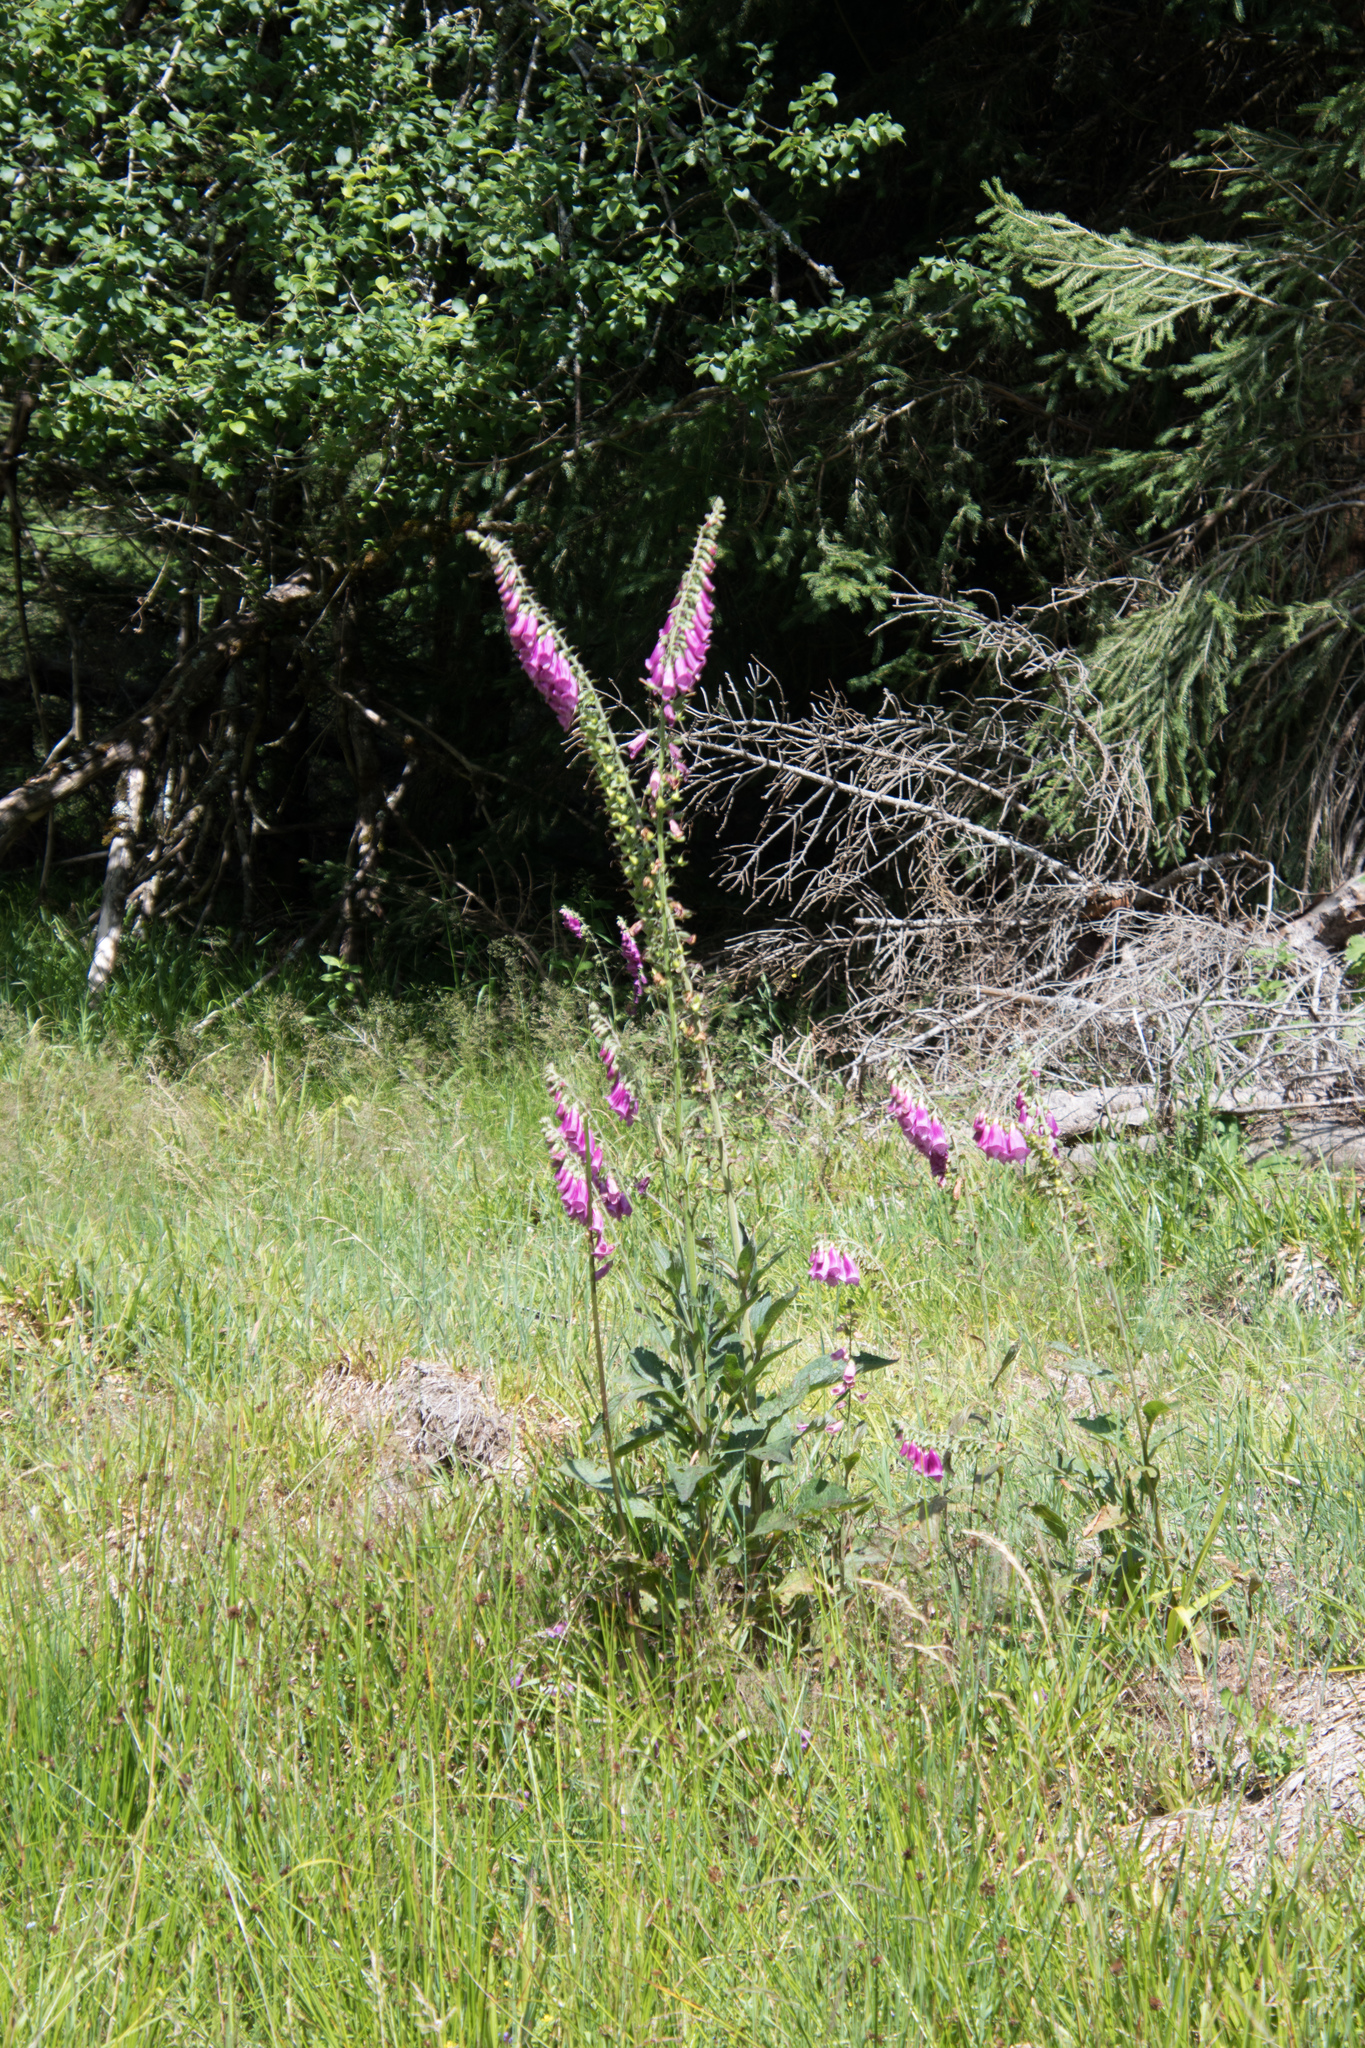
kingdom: Plantae
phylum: Tracheophyta
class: Magnoliopsida
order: Lamiales
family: Plantaginaceae
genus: Digitalis
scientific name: Digitalis purpurea
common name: Foxglove
